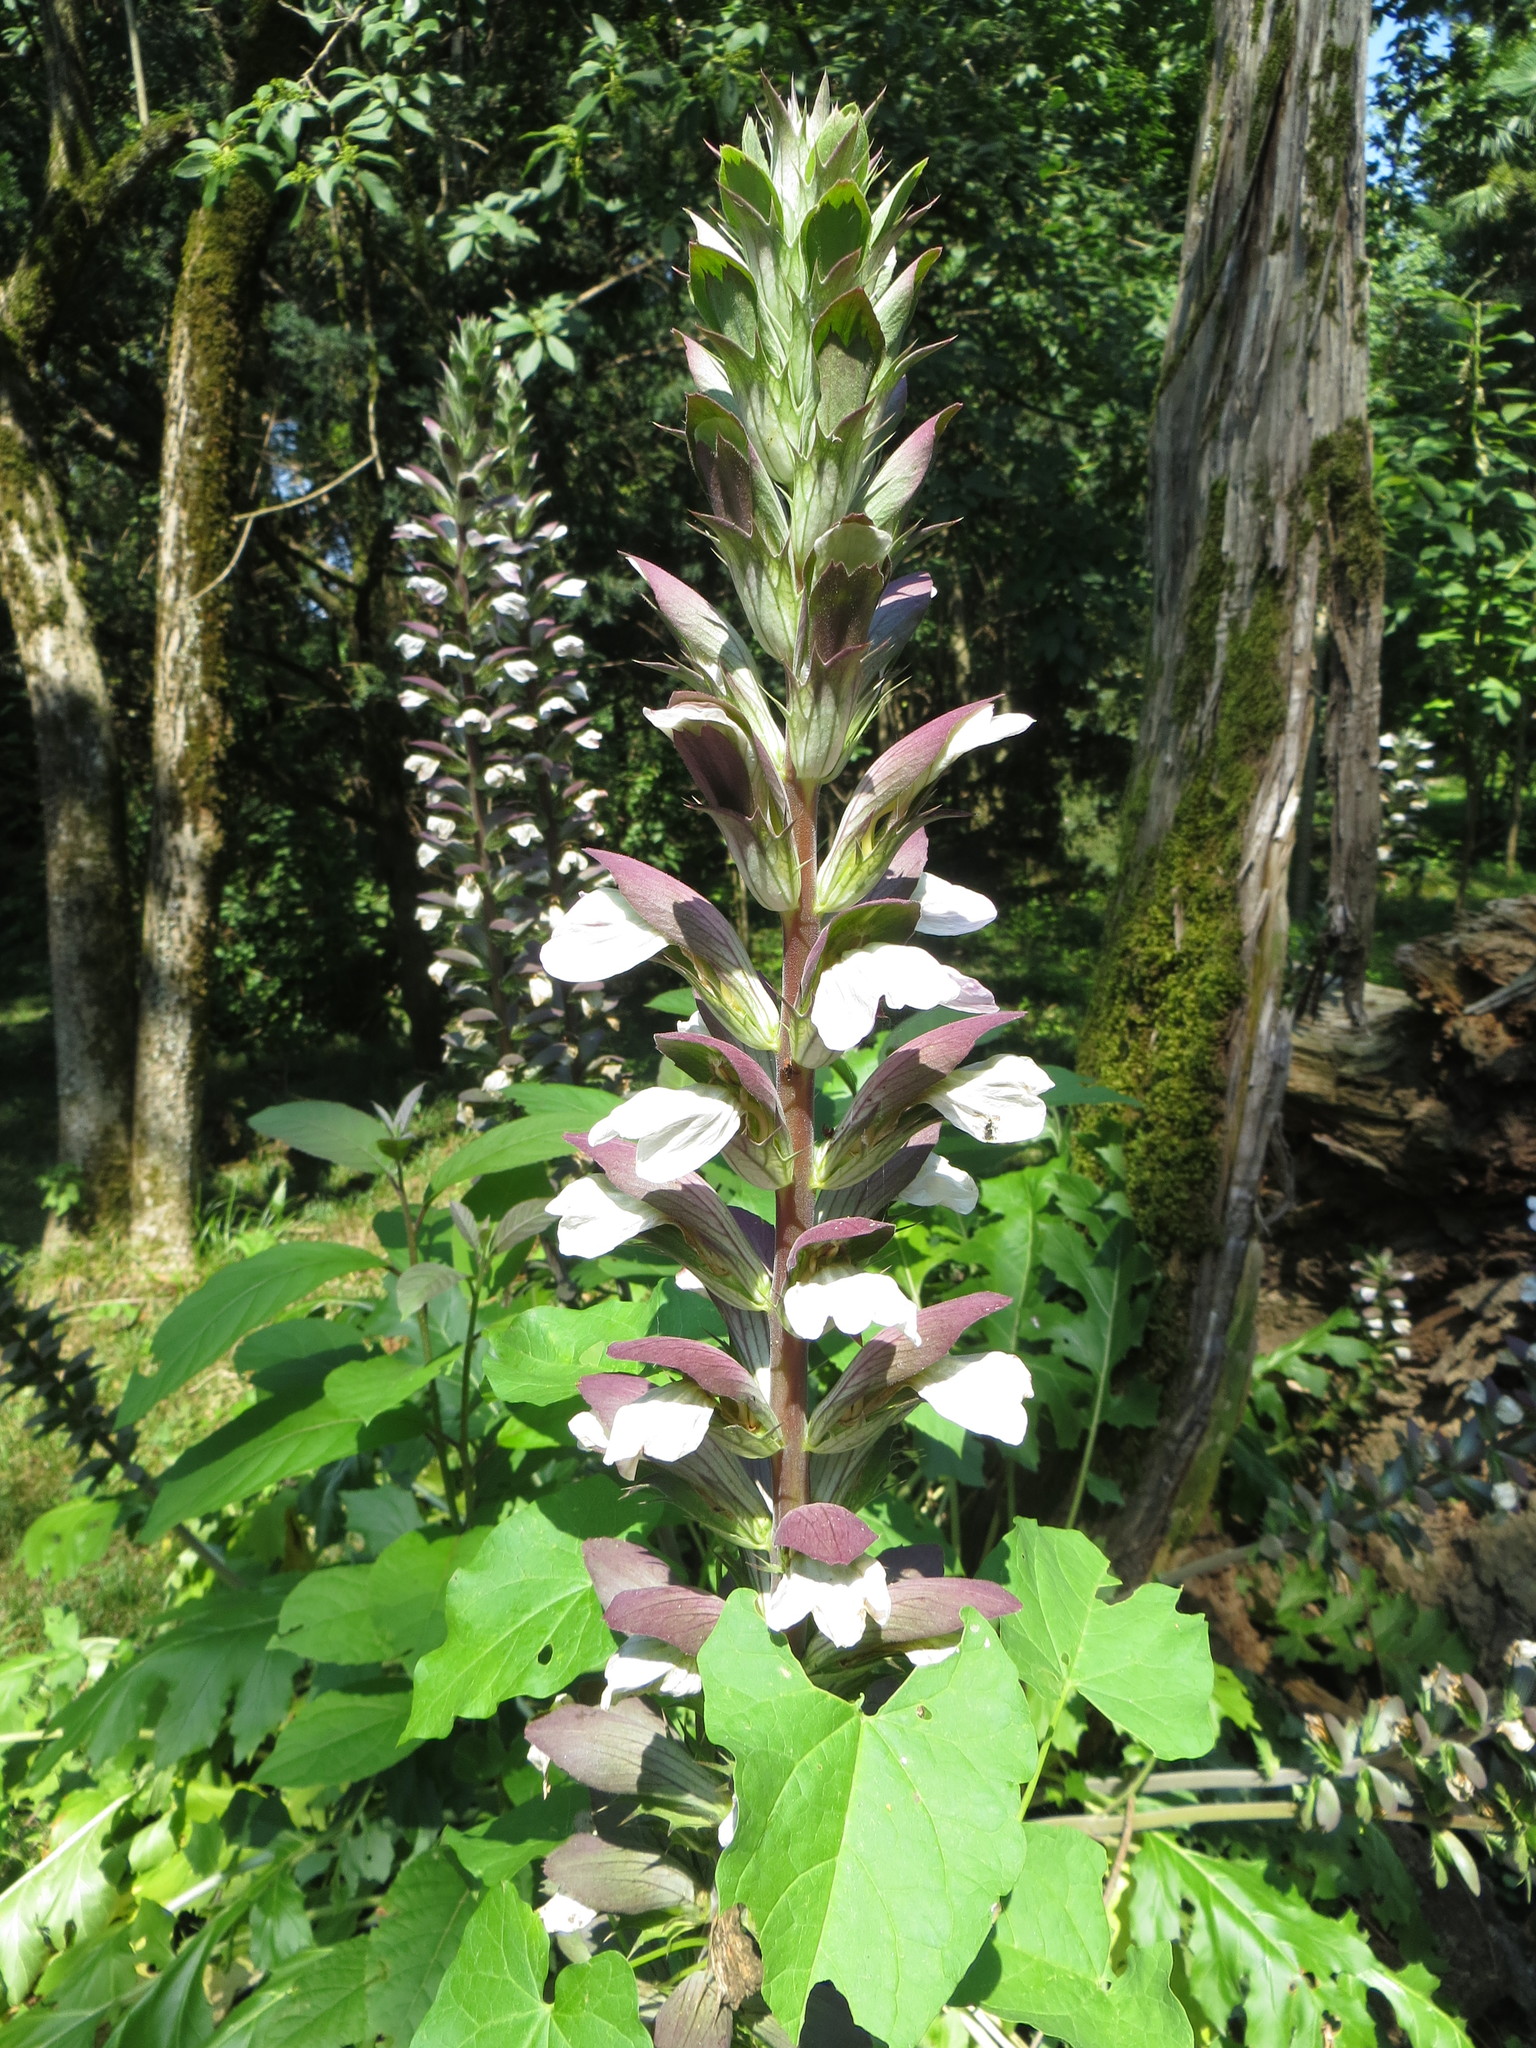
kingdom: Plantae
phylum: Tracheophyta
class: Magnoliopsida
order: Lamiales
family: Acanthaceae
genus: Acanthus
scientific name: Acanthus mollis
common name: Bear's-breech
